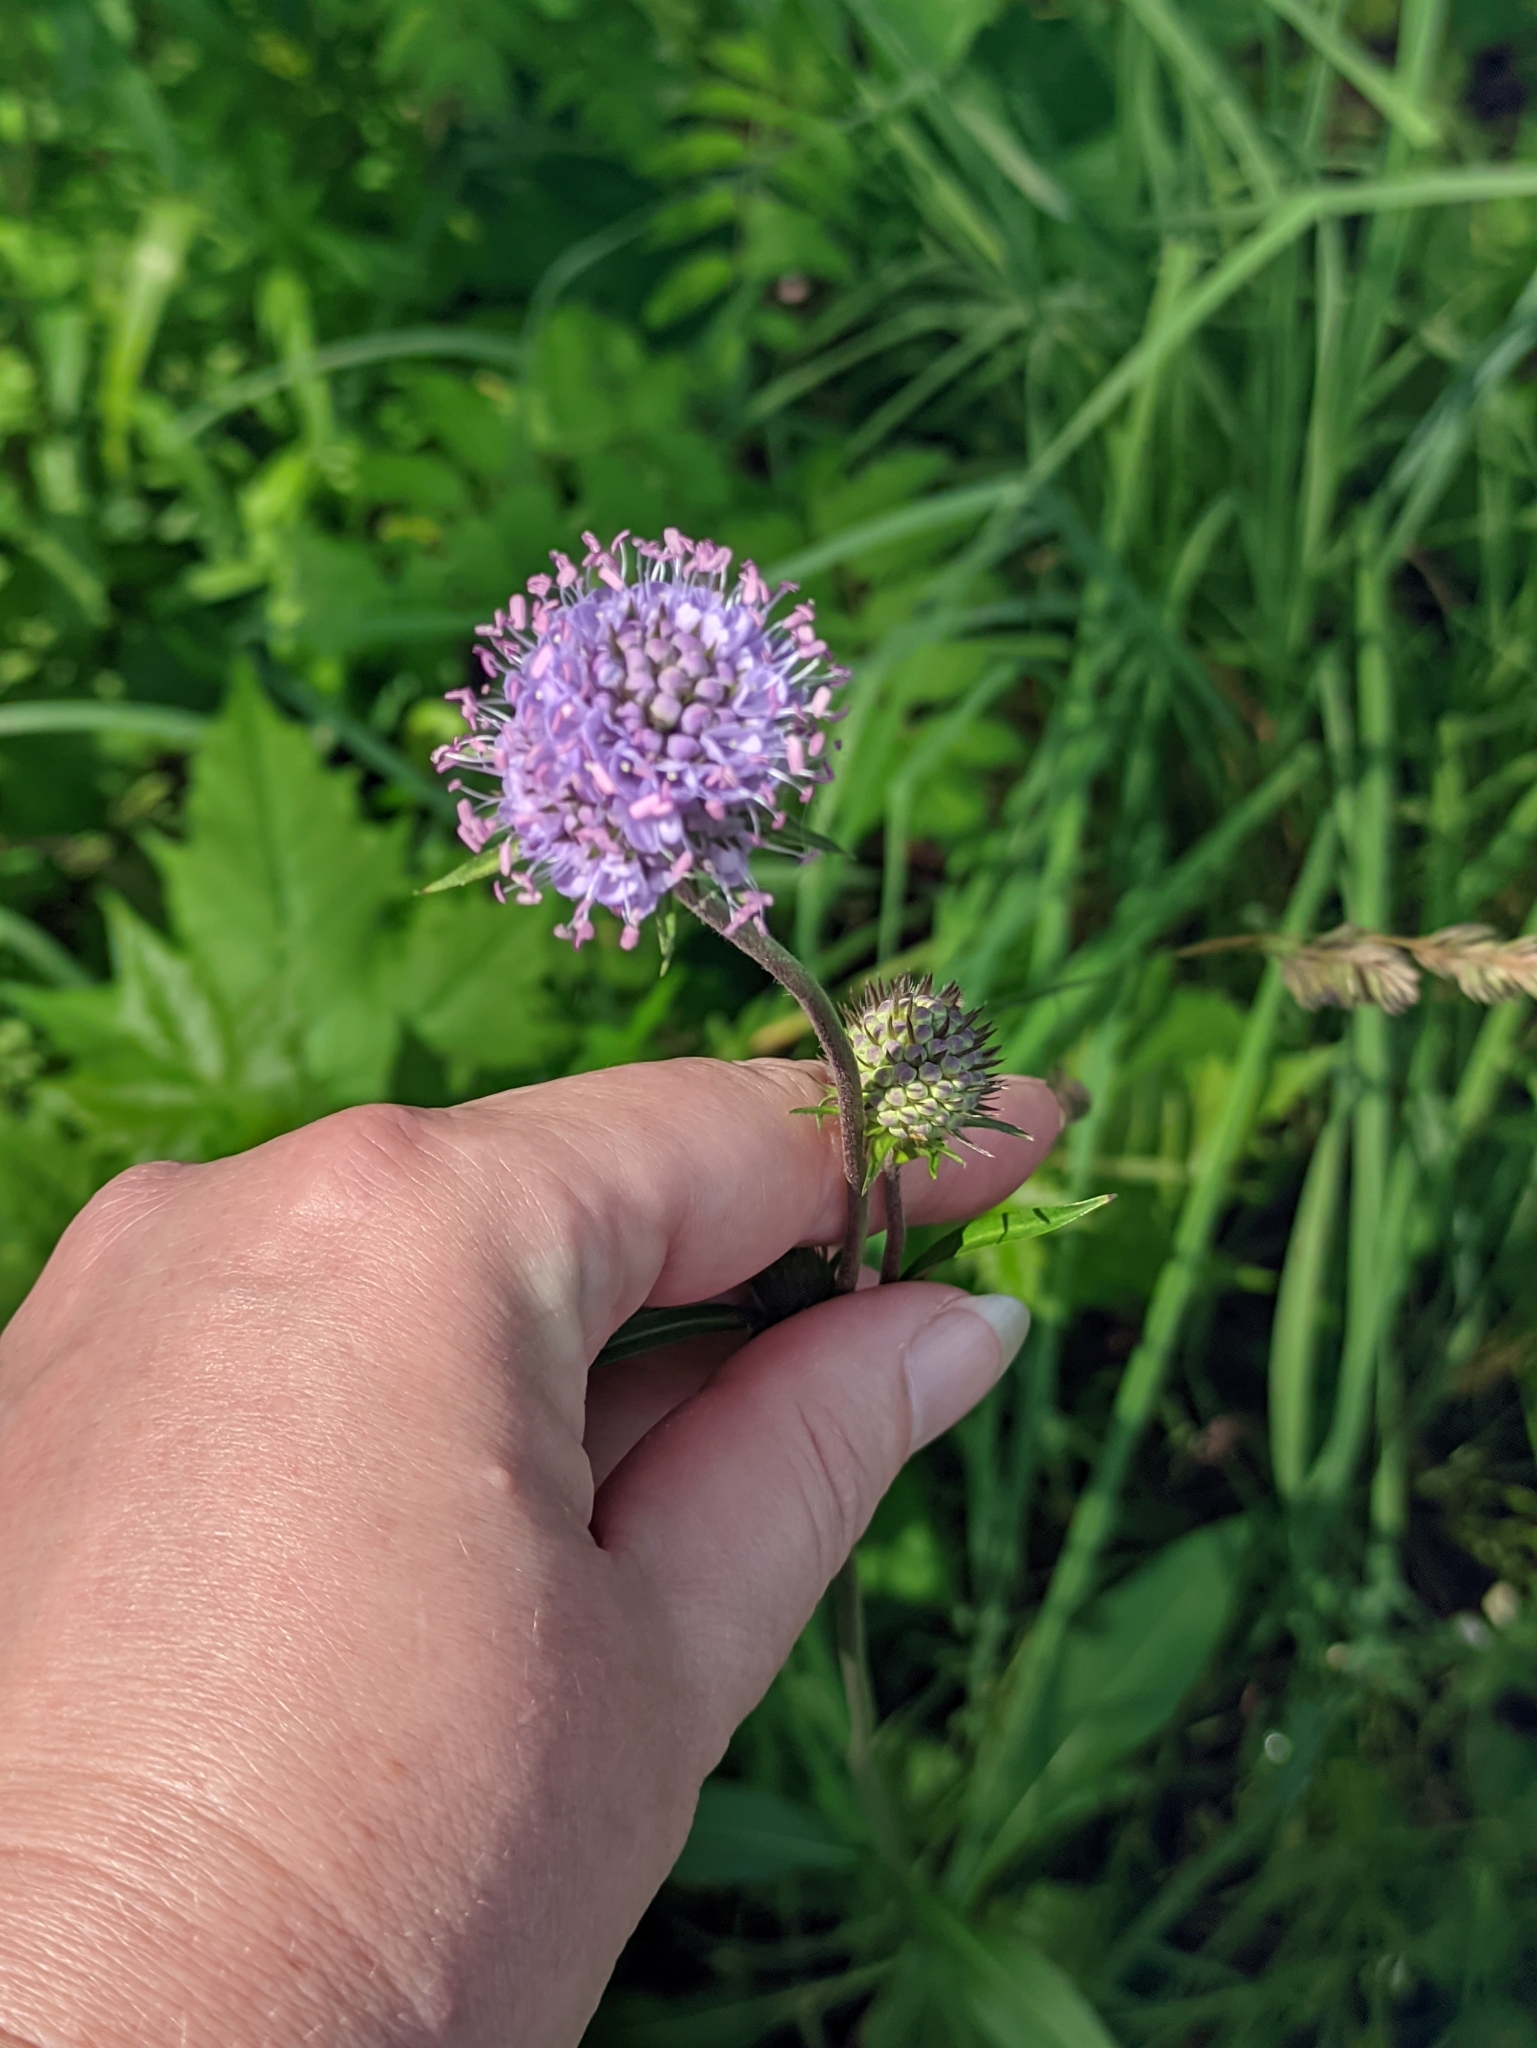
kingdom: Plantae
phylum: Tracheophyta
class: Magnoliopsida
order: Dipsacales
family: Caprifoliaceae
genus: Succisa
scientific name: Succisa pratensis
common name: Devil's-bit
